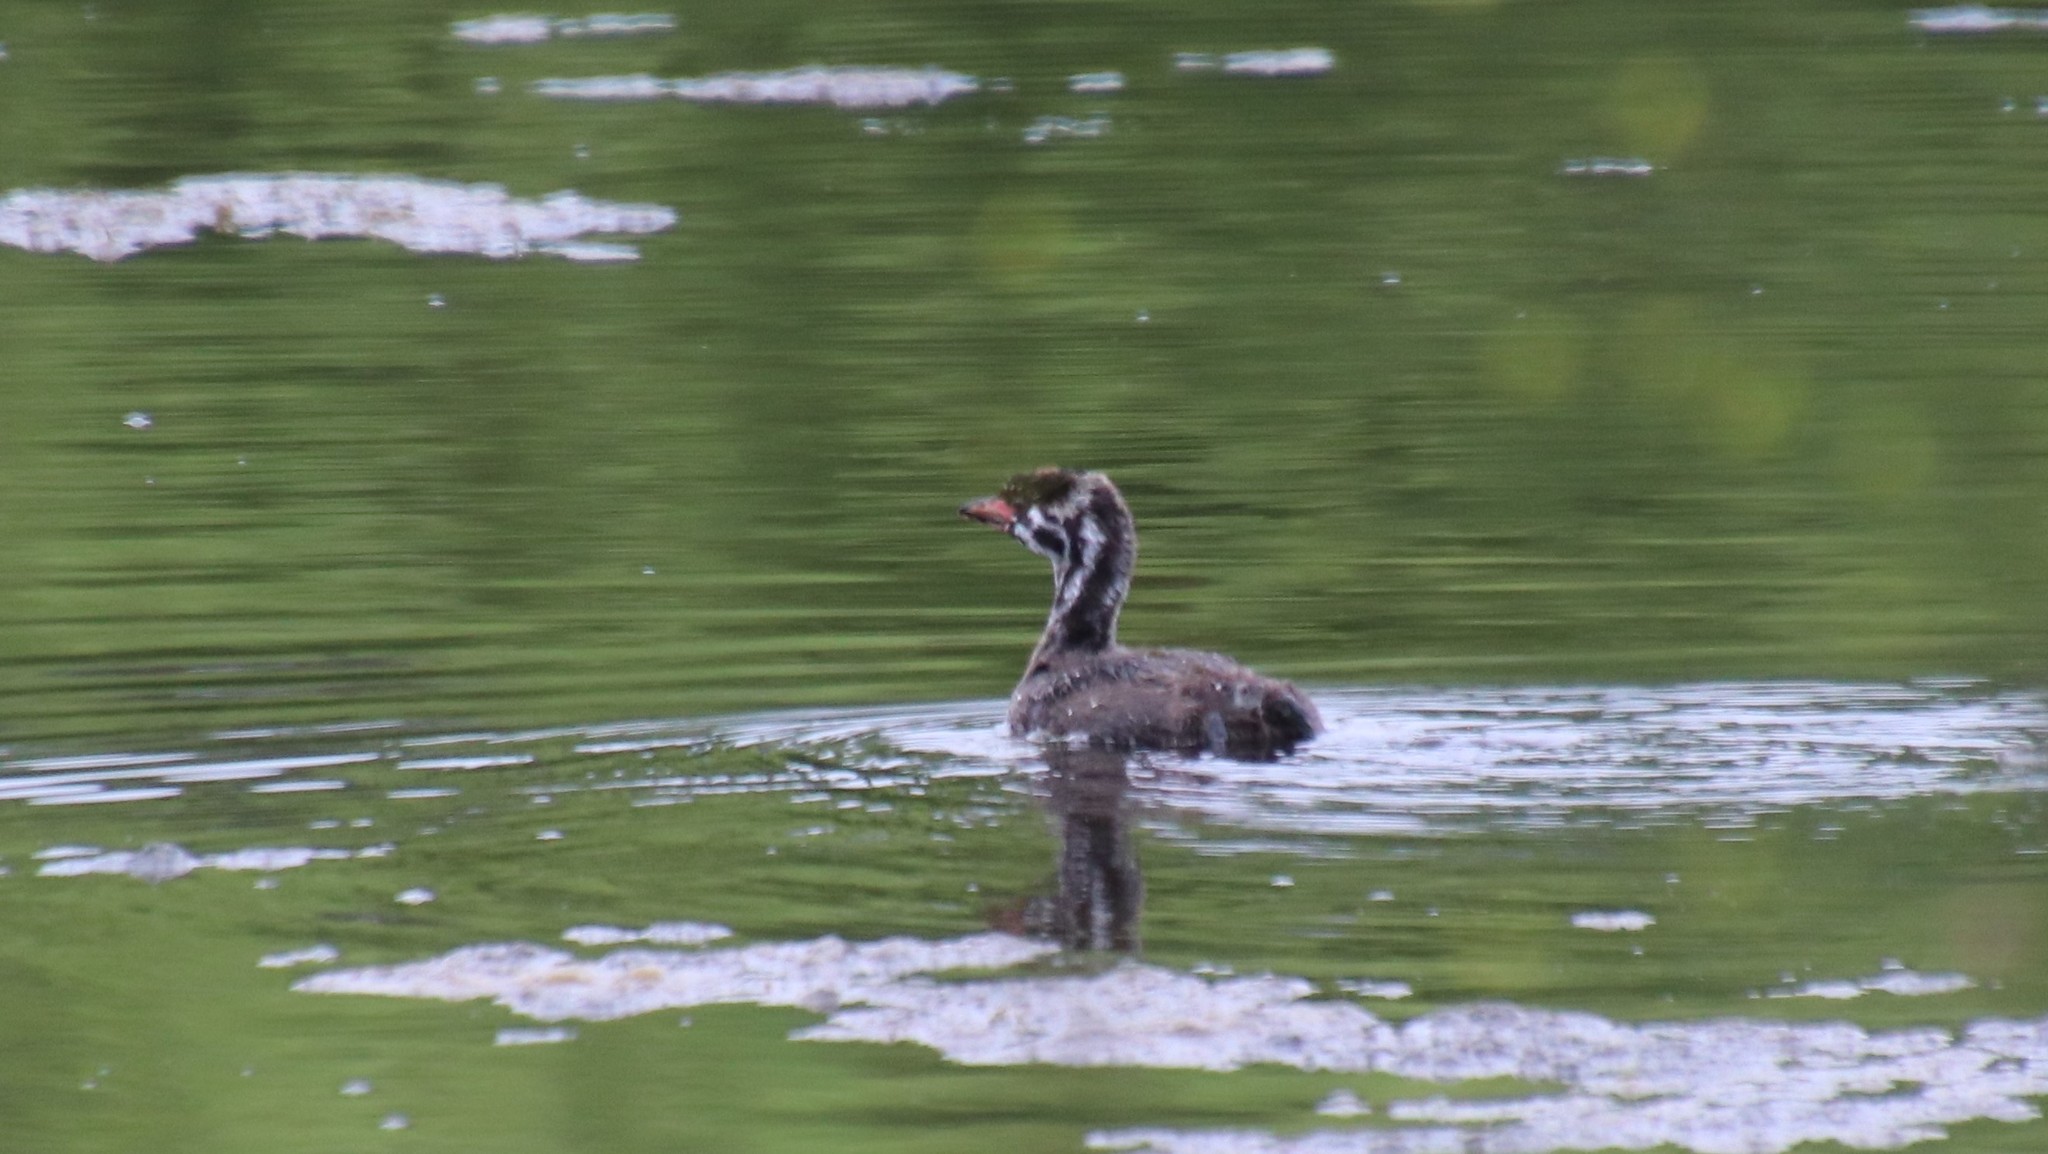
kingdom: Animalia
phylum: Chordata
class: Aves
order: Podicipediformes
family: Podicipedidae
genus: Podilymbus
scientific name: Podilymbus podiceps
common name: Pied-billed grebe
